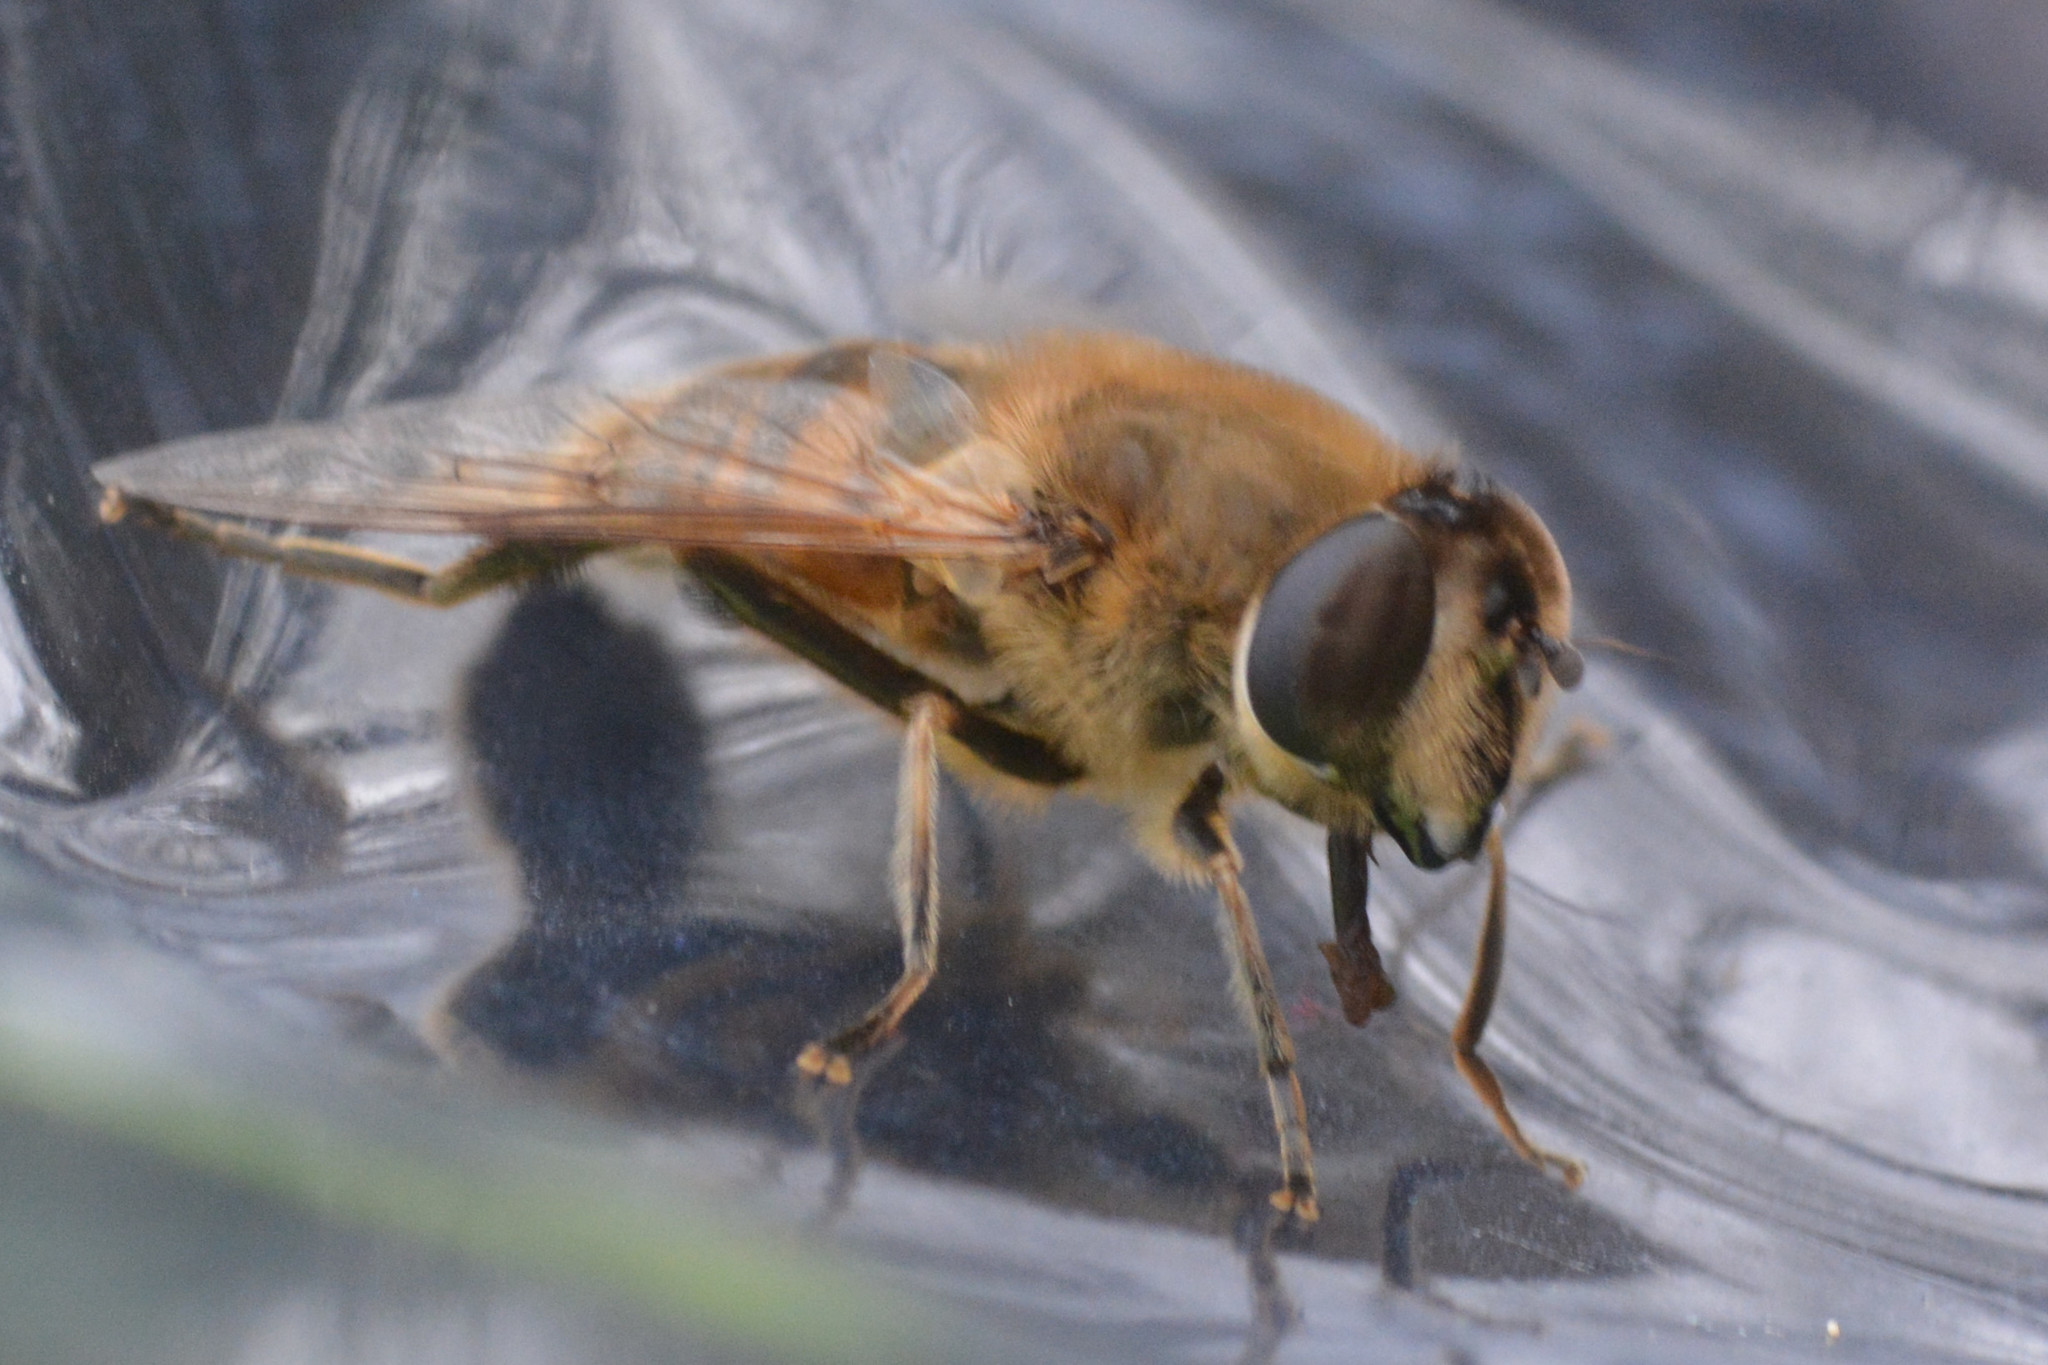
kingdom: Animalia
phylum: Arthropoda
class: Insecta
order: Diptera
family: Syrphidae
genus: Eristalis
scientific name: Eristalis tenax
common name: Drone fly
